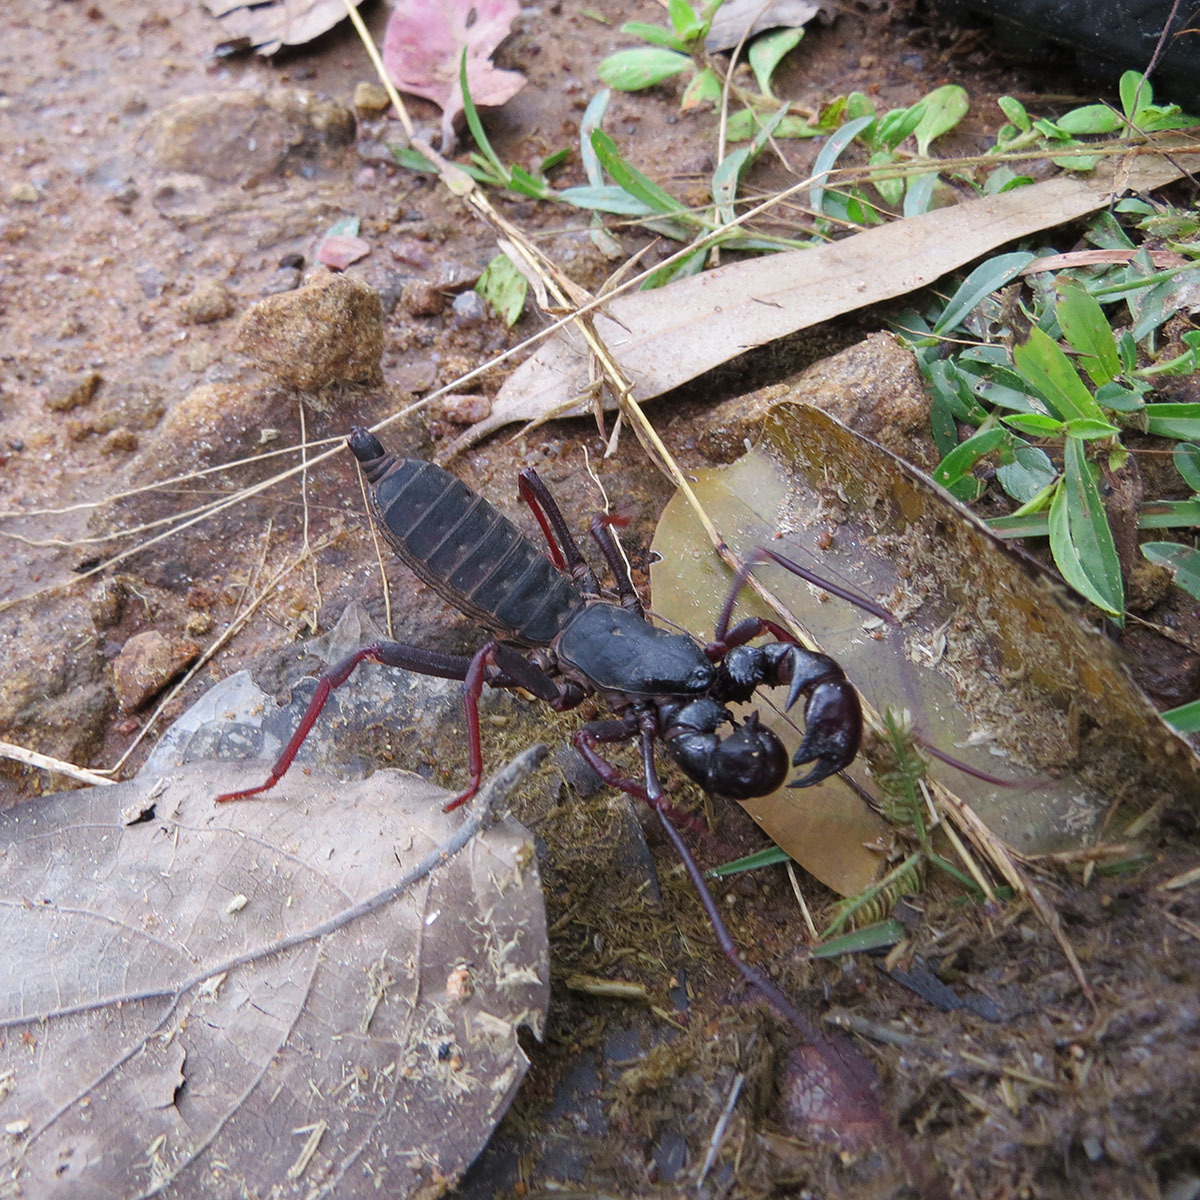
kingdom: Animalia
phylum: Arthropoda
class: Arachnida
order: Uropygi
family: Thelyphonidae
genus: Thelyphonus
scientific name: Thelyphonus sepiaris
